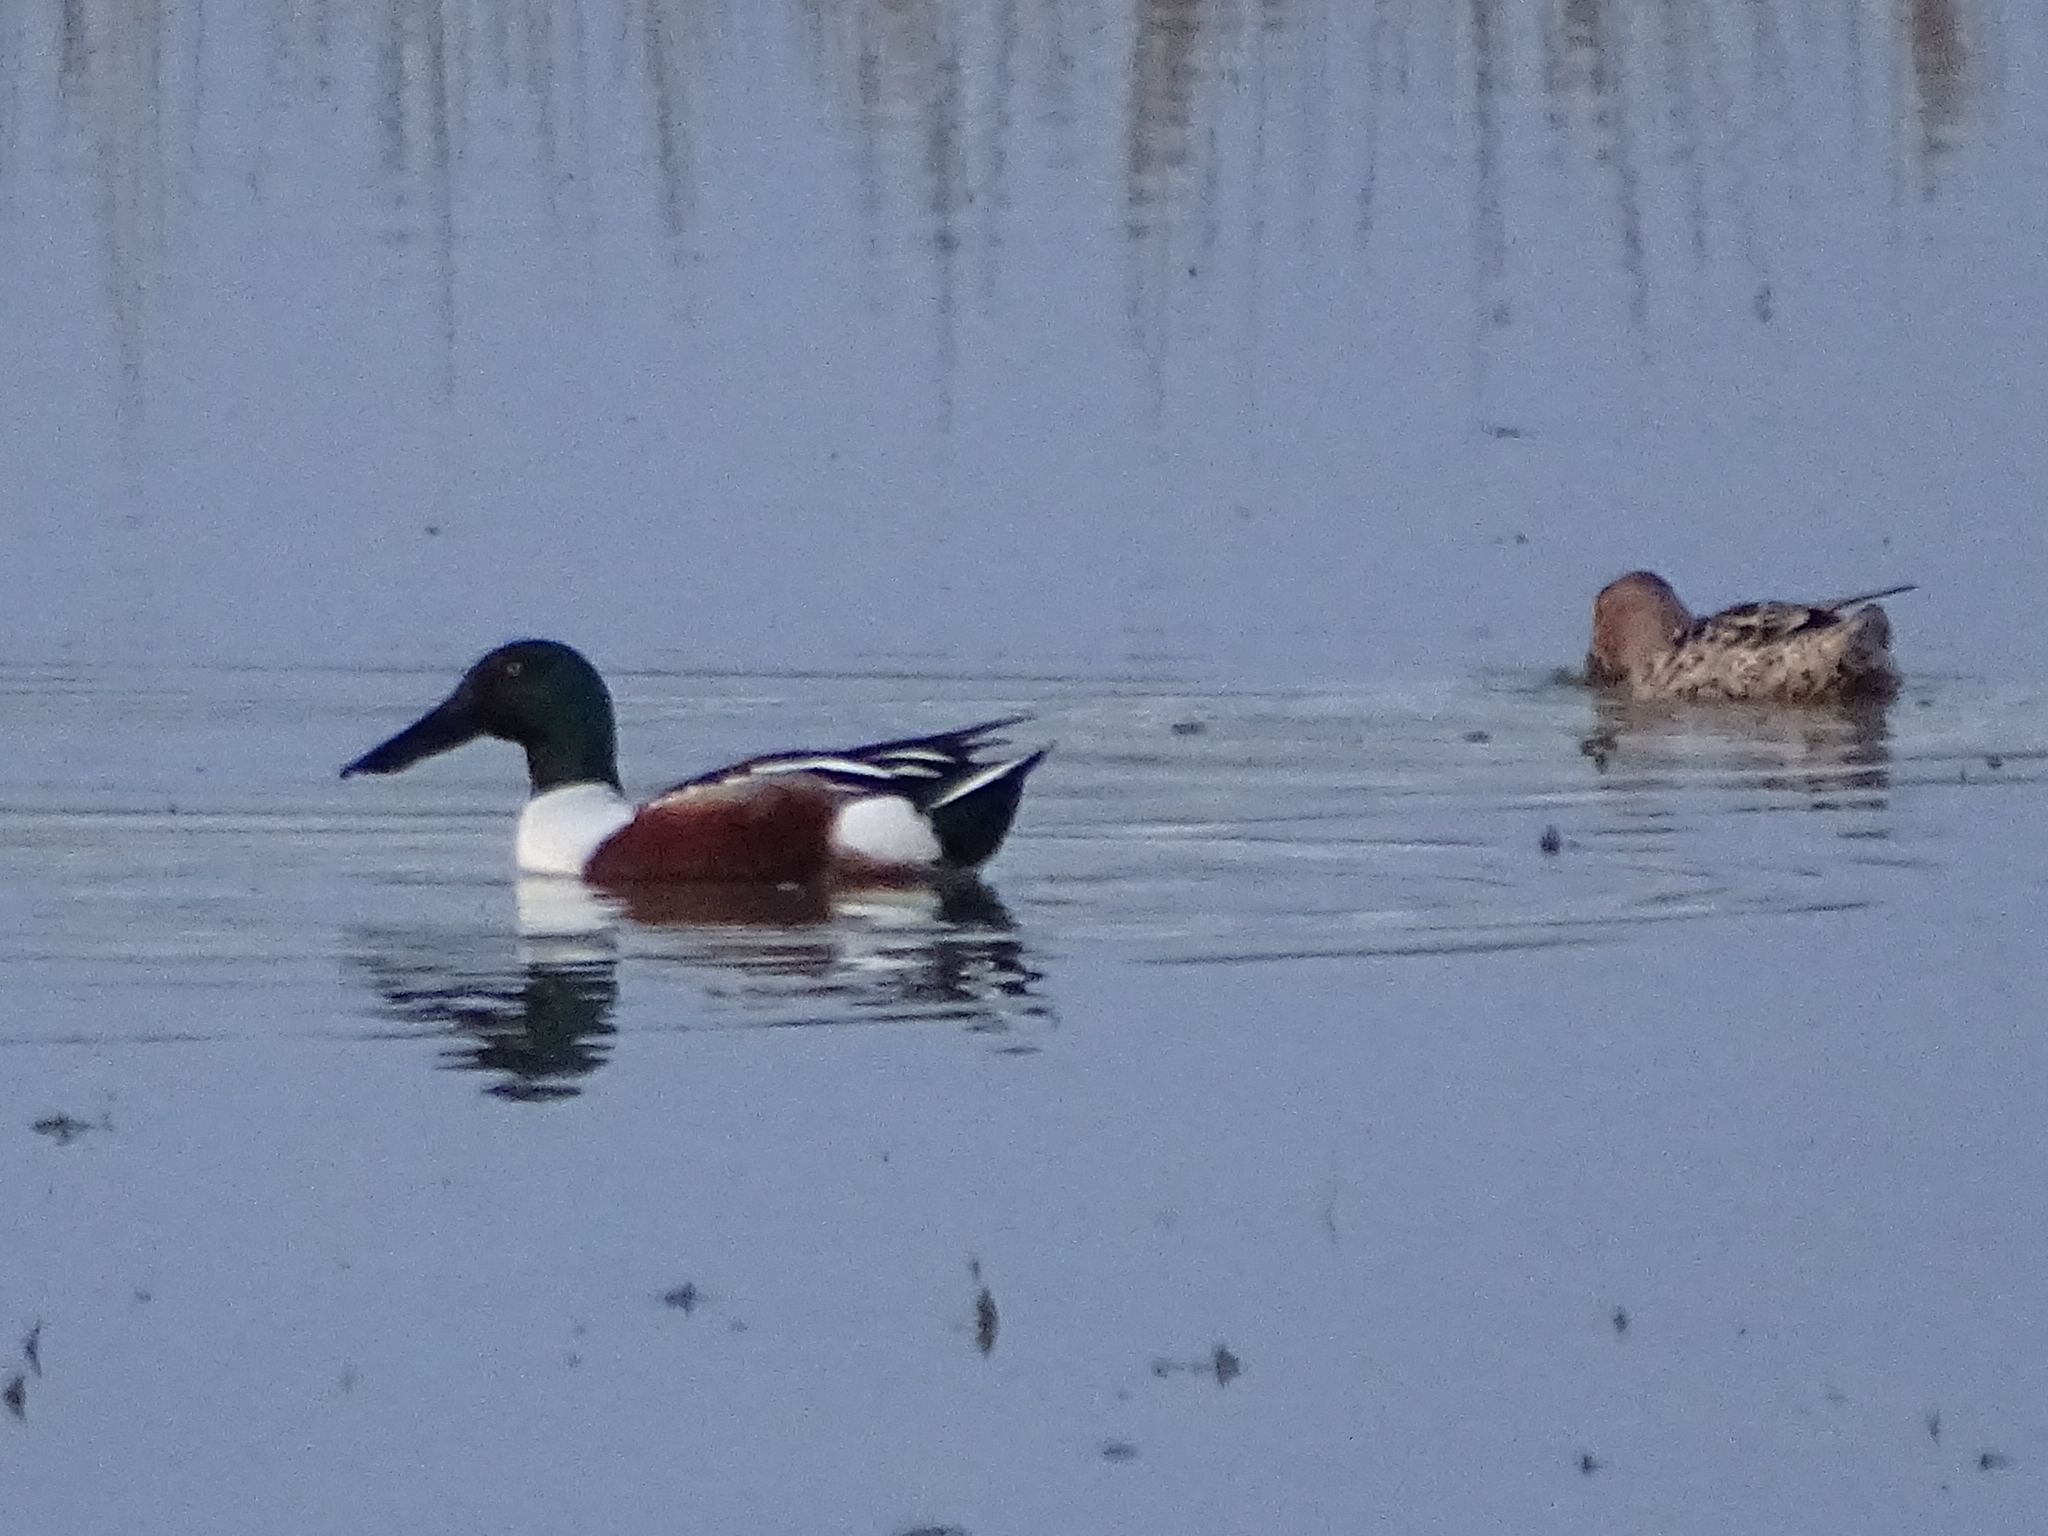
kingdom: Animalia
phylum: Chordata
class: Aves
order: Anseriformes
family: Anatidae
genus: Spatula
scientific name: Spatula clypeata
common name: Northern shoveler
